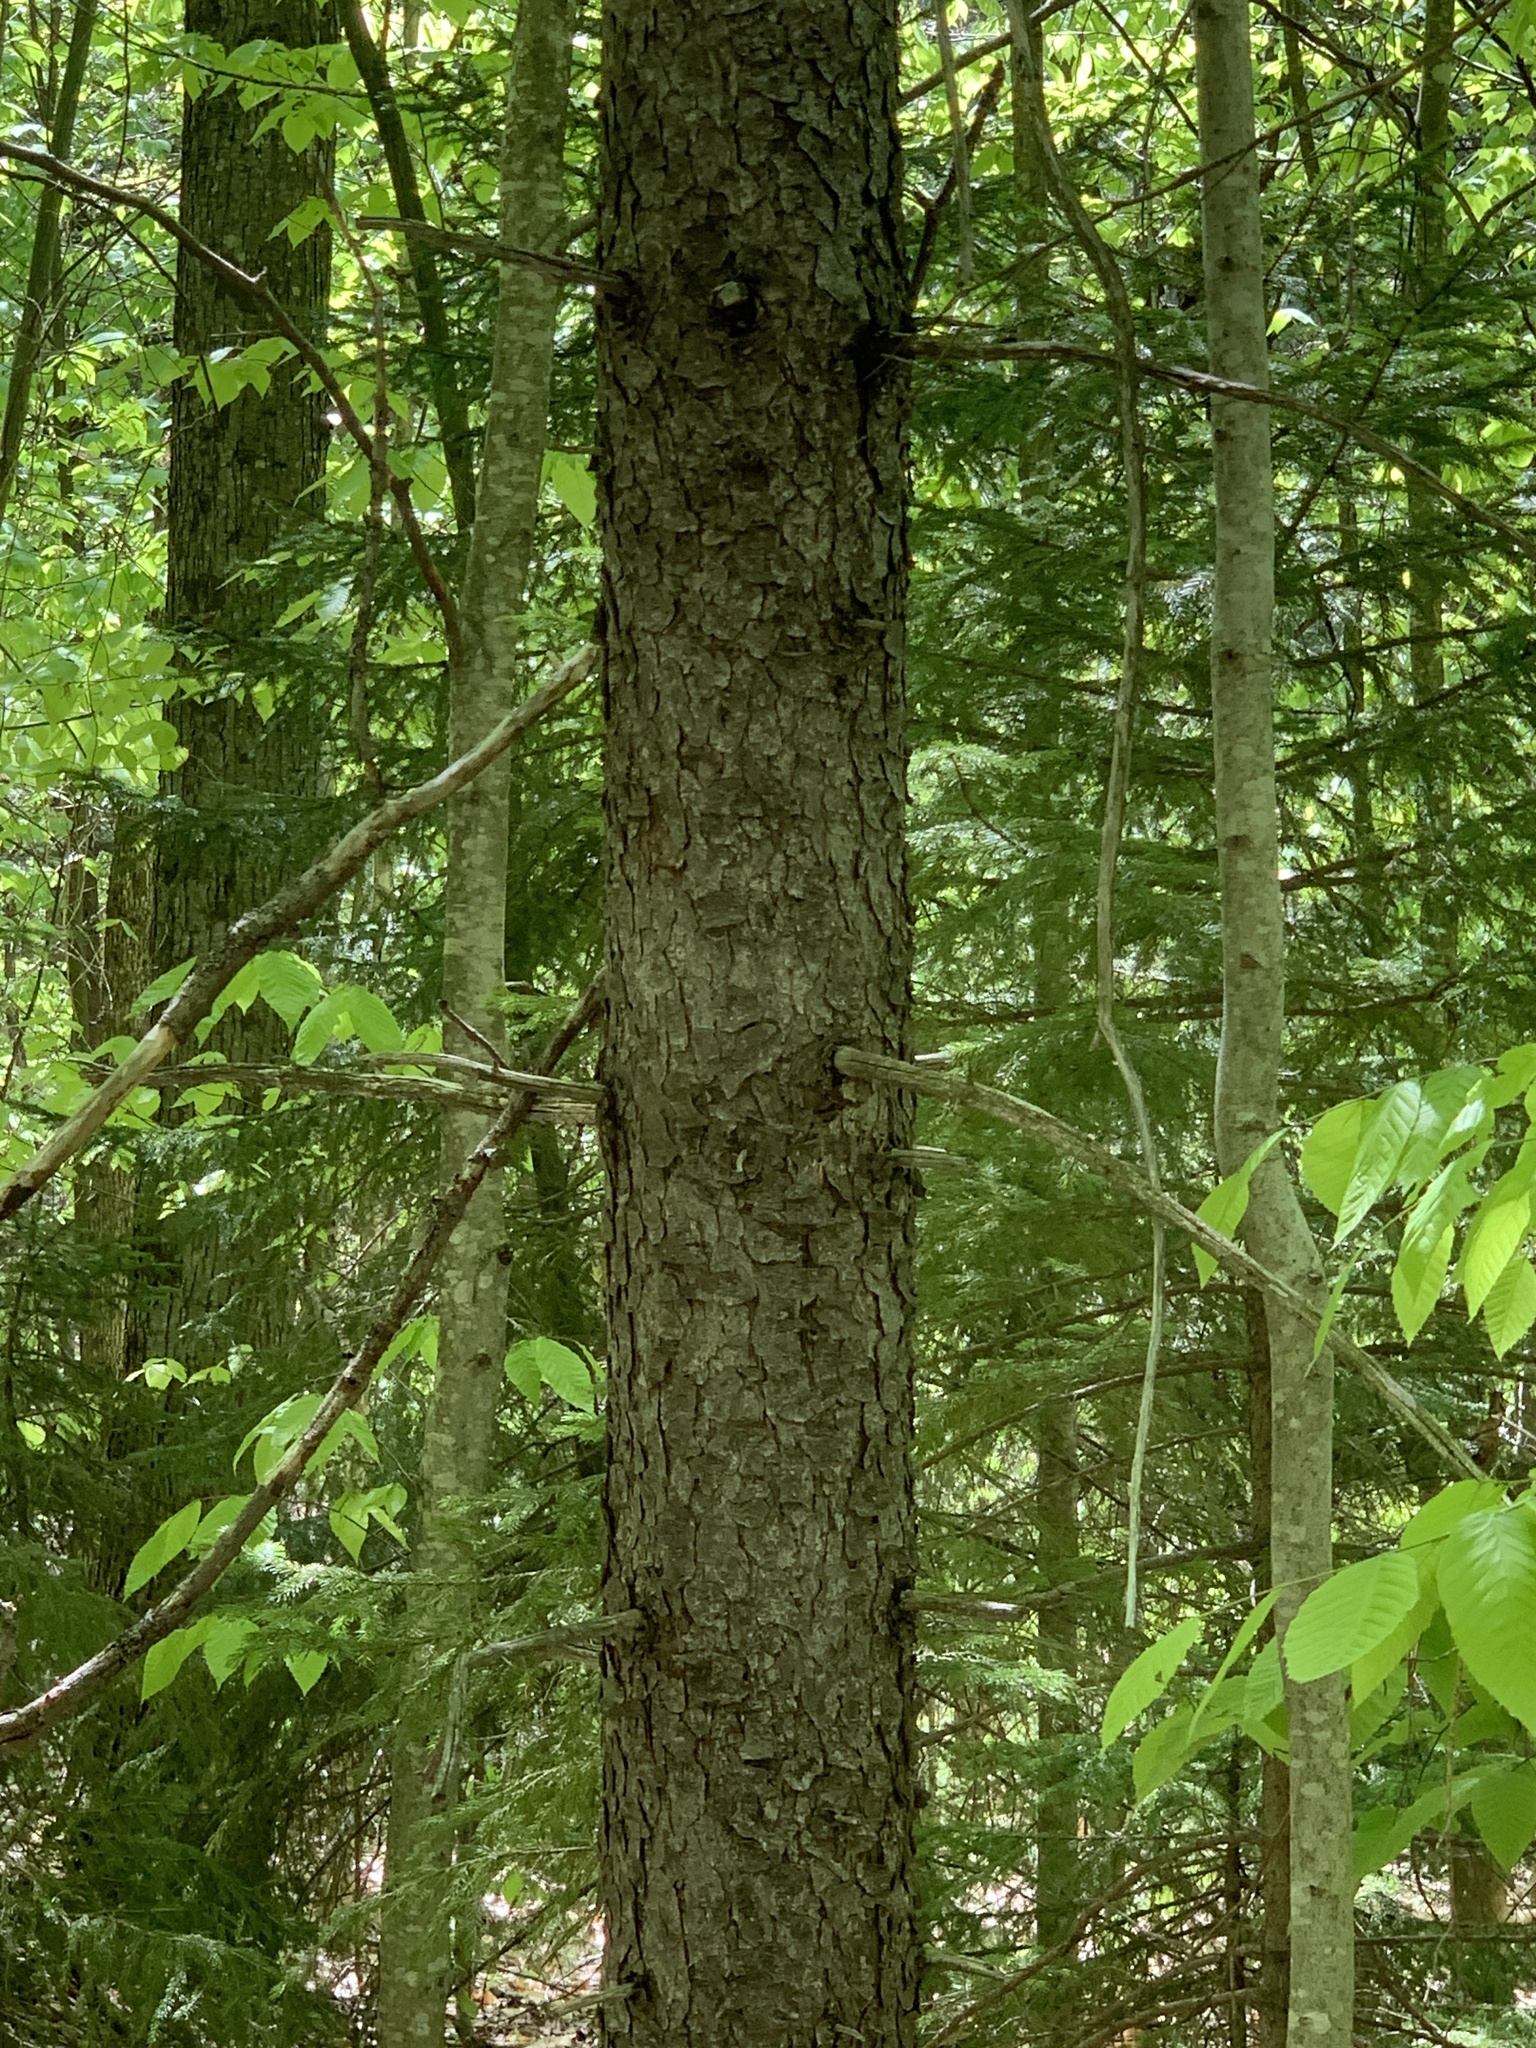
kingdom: Plantae
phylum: Tracheophyta
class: Pinopsida
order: Pinales
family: Pinaceae
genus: Picea
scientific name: Picea rubens
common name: Red spruce
